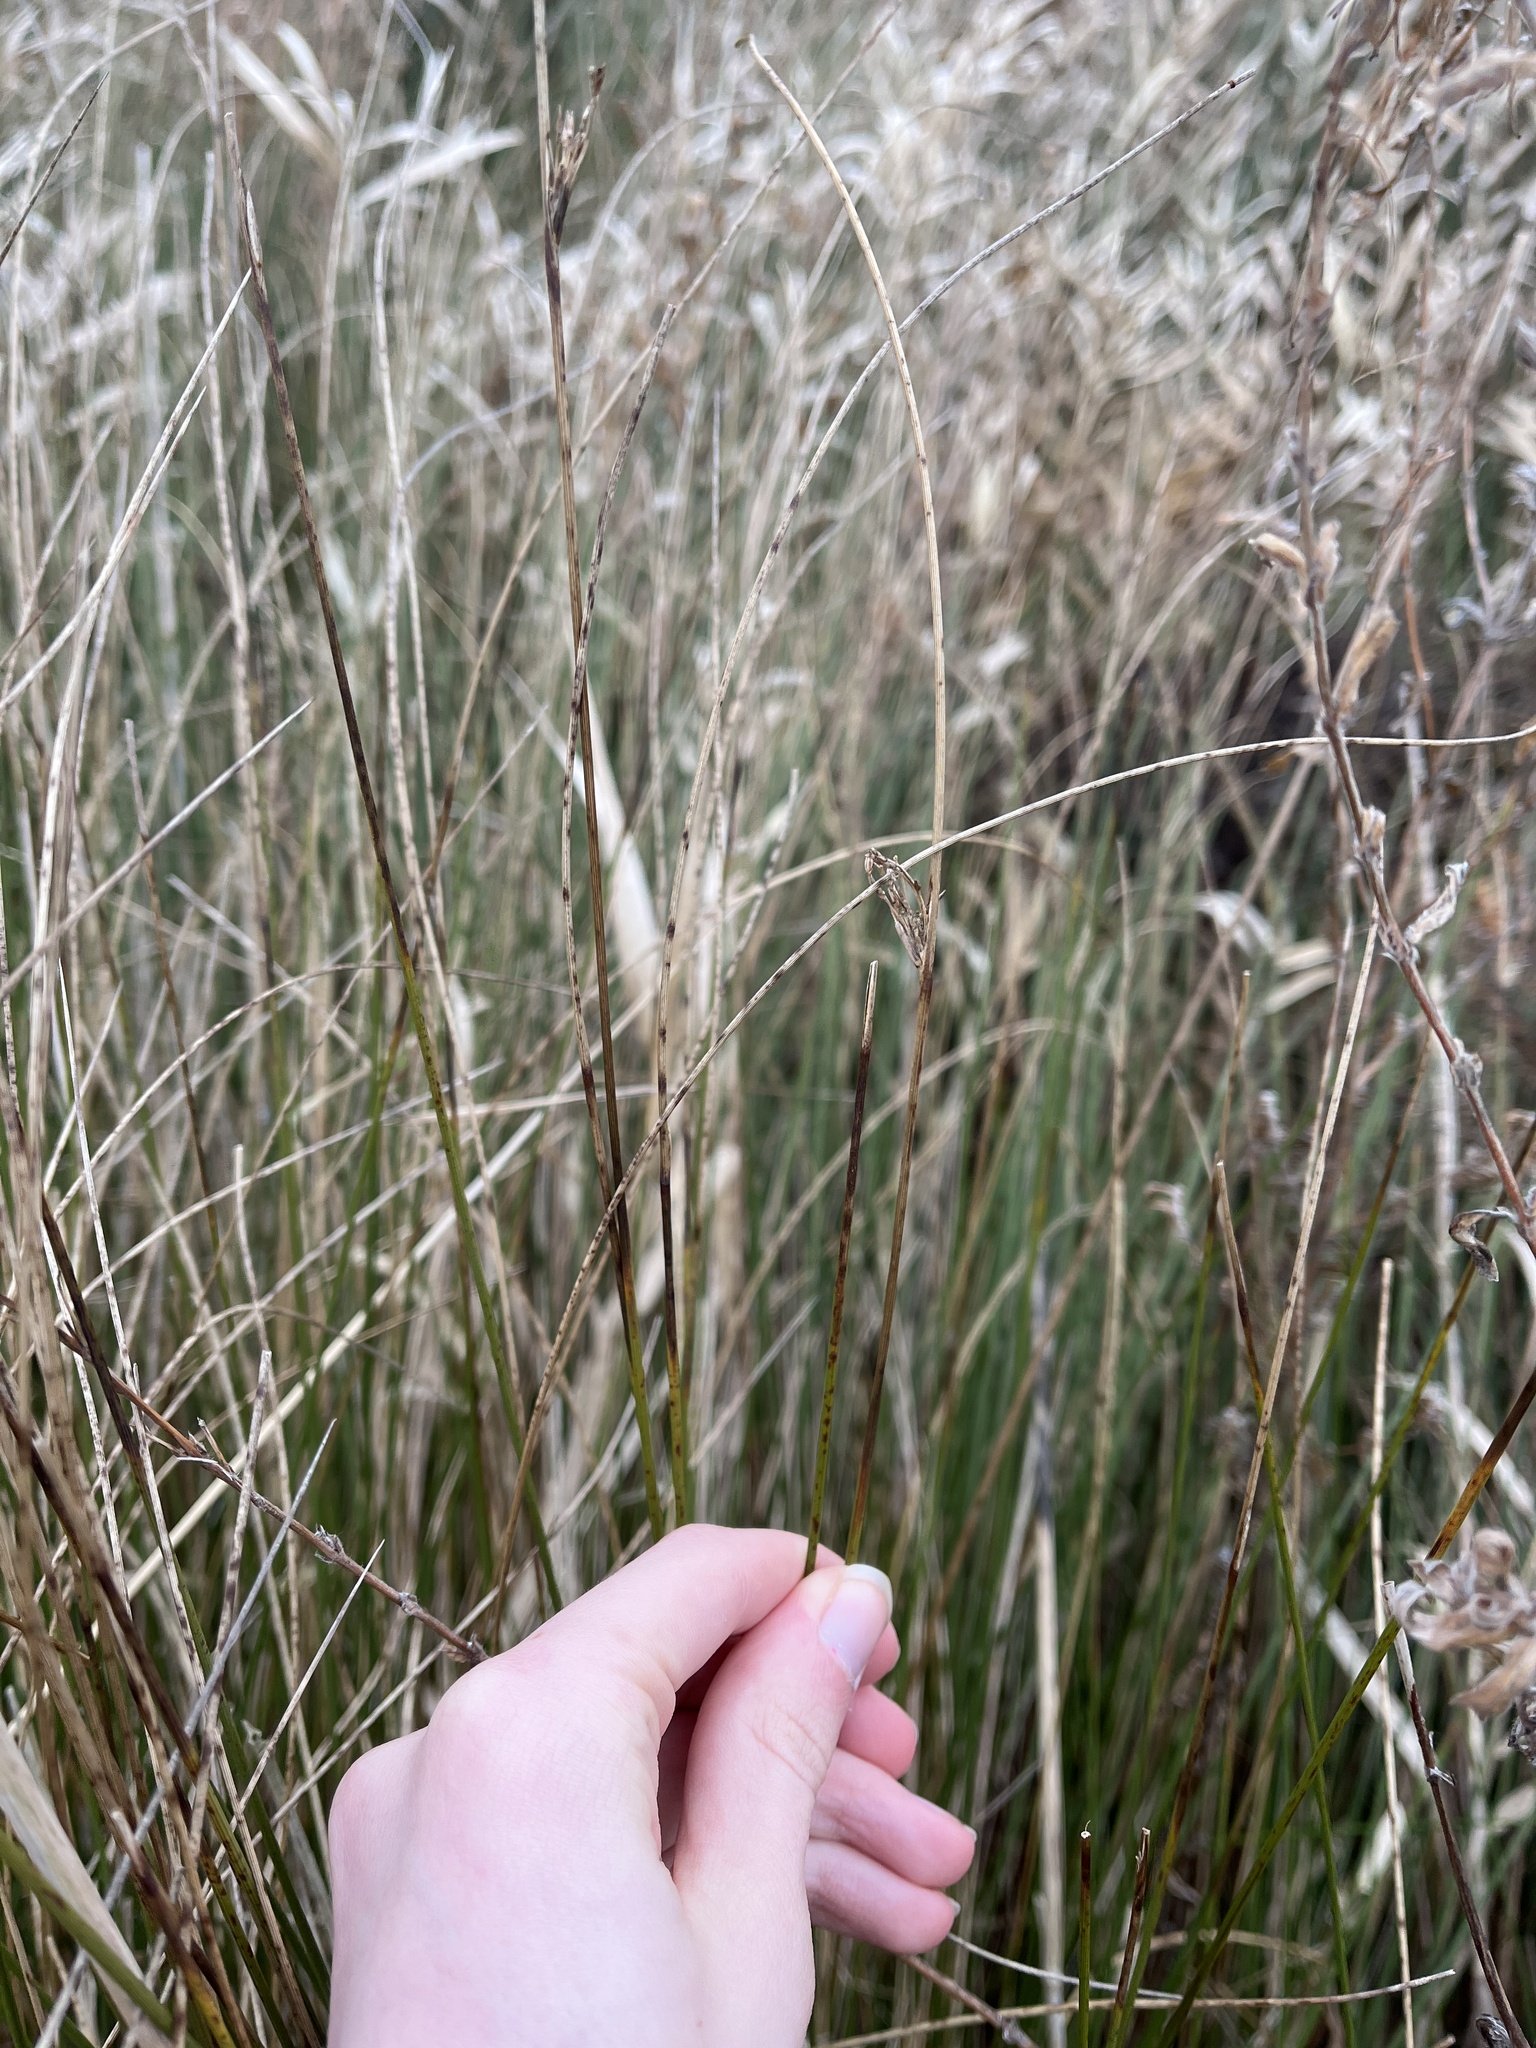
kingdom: Plantae
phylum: Tracheophyta
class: Liliopsida
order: Poales
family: Juncaceae
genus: Juncus
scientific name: Juncus inflexus
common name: Hard rush
